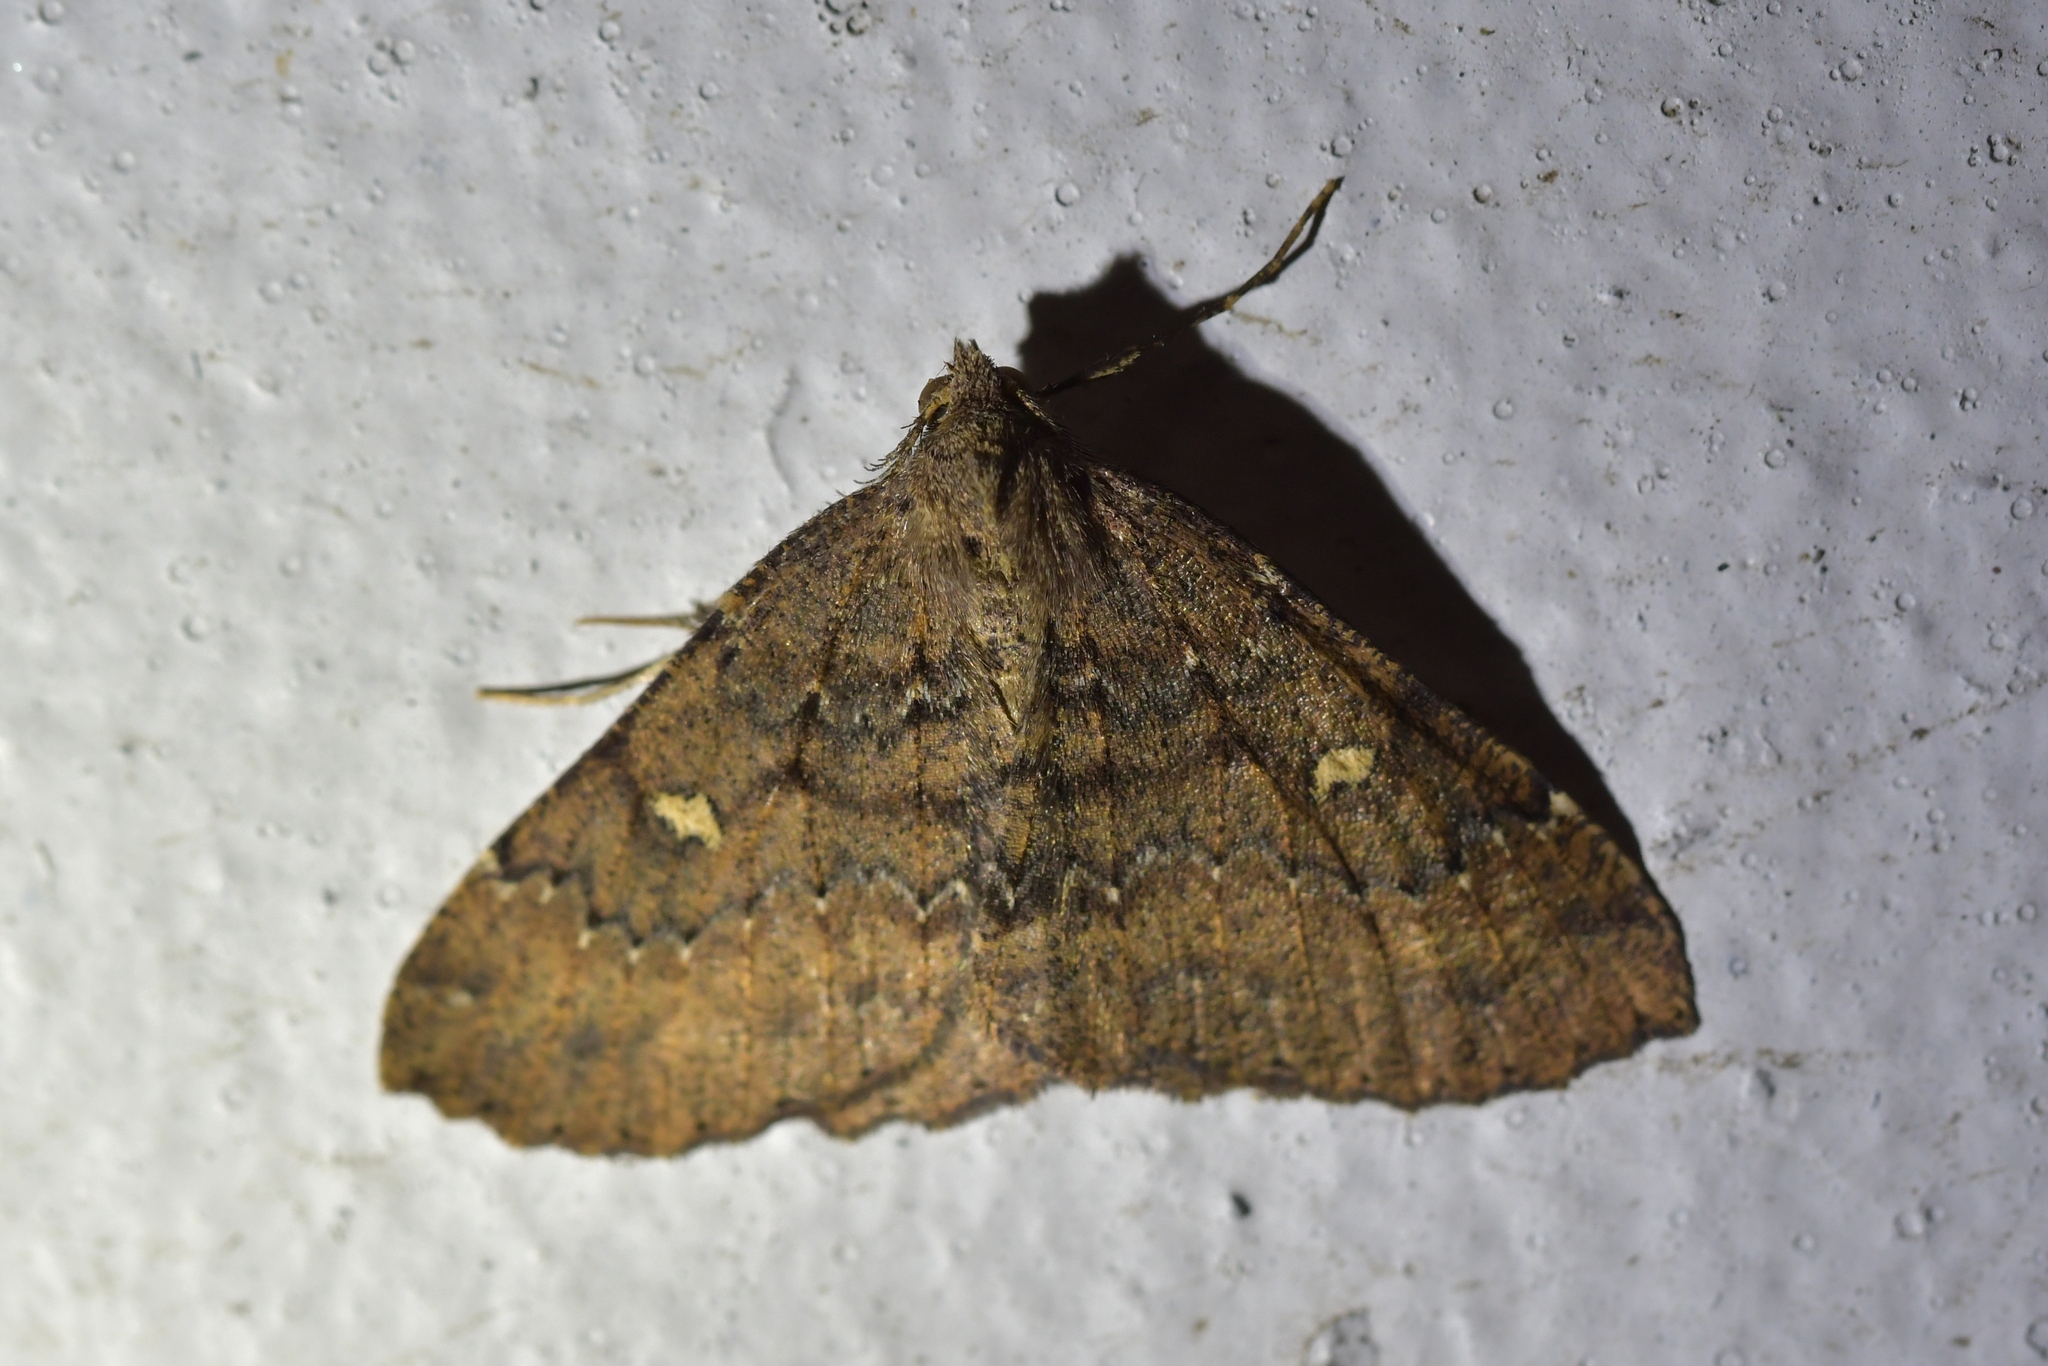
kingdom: Animalia
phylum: Arthropoda
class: Insecta
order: Lepidoptera
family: Geometridae
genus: Cleora
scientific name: Cleora scriptaria
